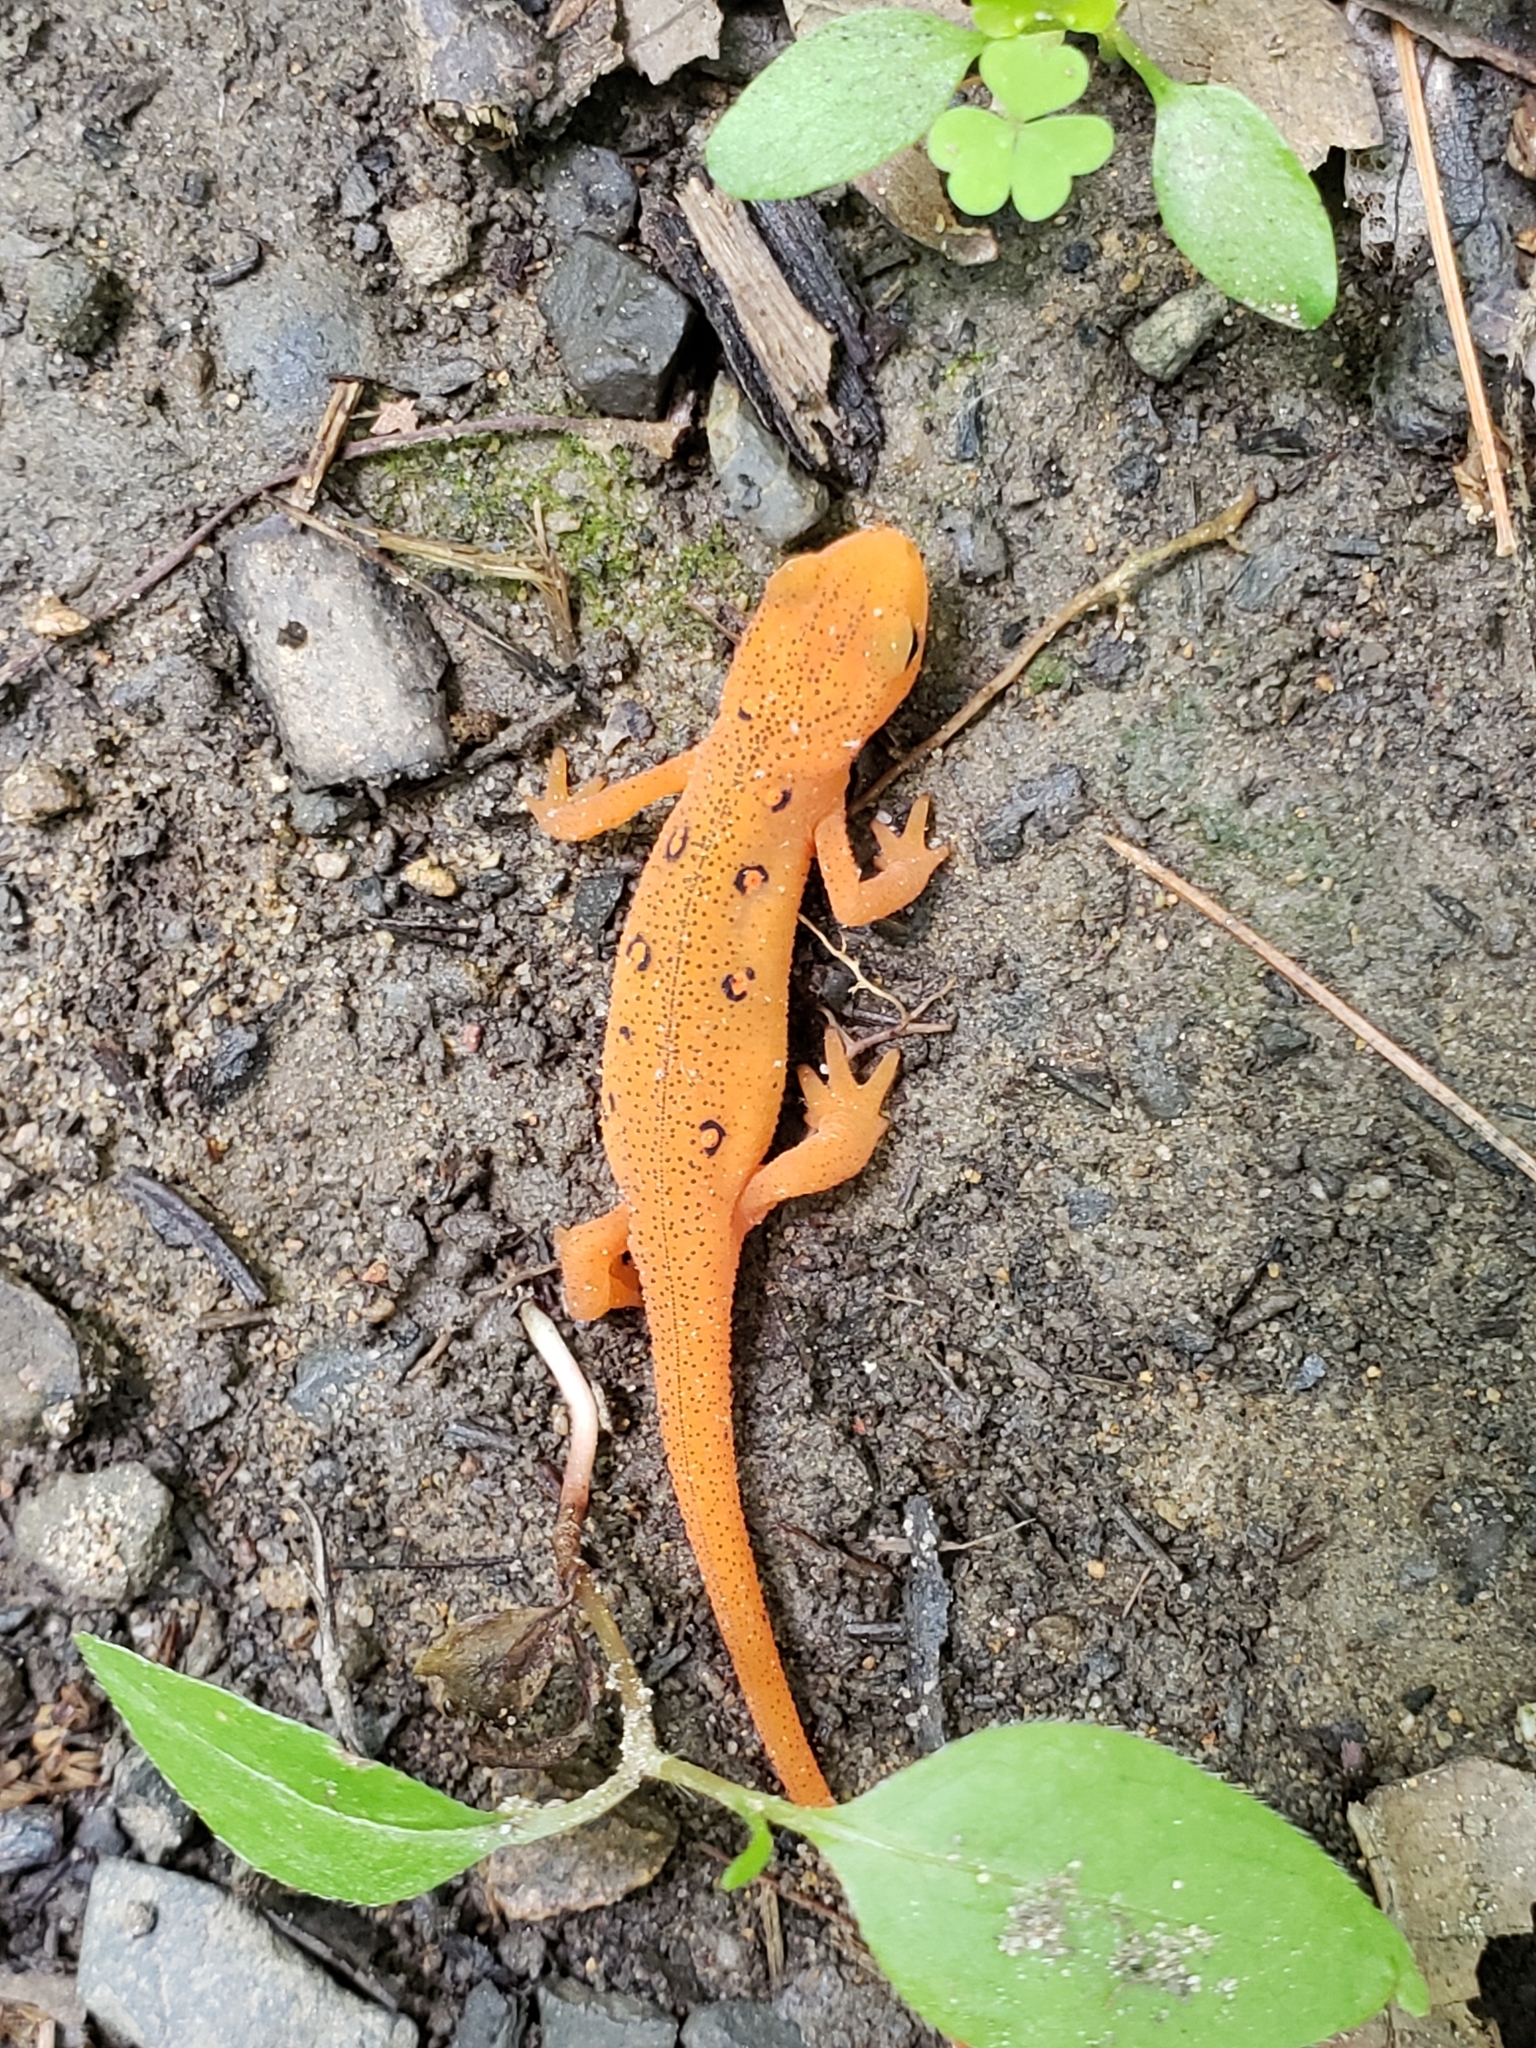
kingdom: Animalia
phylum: Chordata
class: Amphibia
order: Caudata
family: Salamandridae
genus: Notophthalmus
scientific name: Notophthalmus viridescens
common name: Eastern newt
